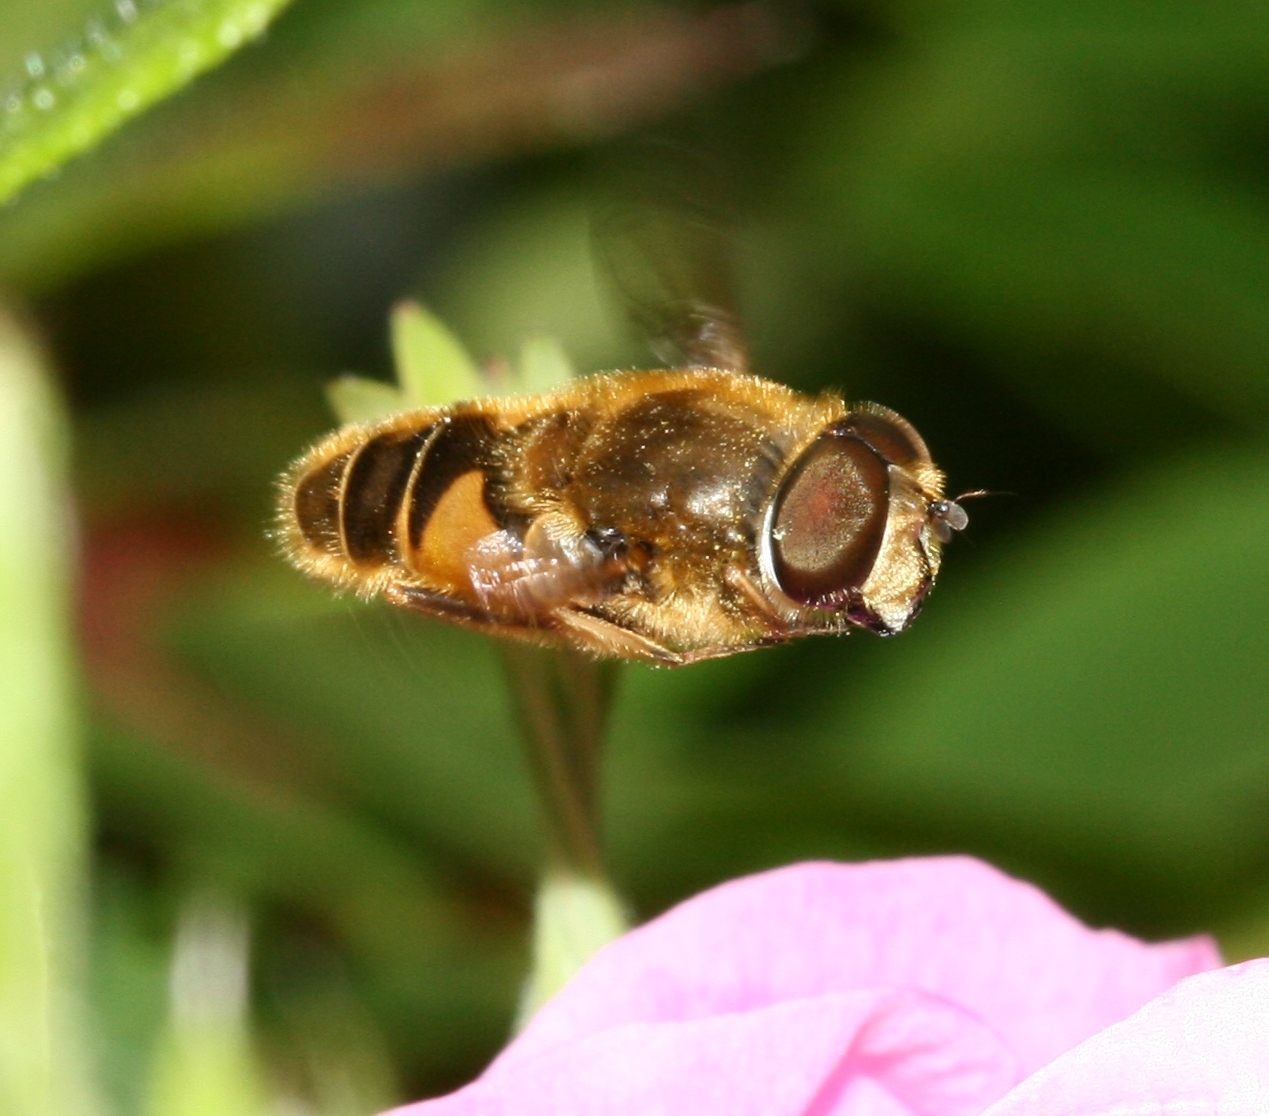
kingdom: Animalia
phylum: Arthropoda
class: Insecta
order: Diptera
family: Syrphidae
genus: Eristalis
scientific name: Eristalis nemorum
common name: Orange-spined drone fly
